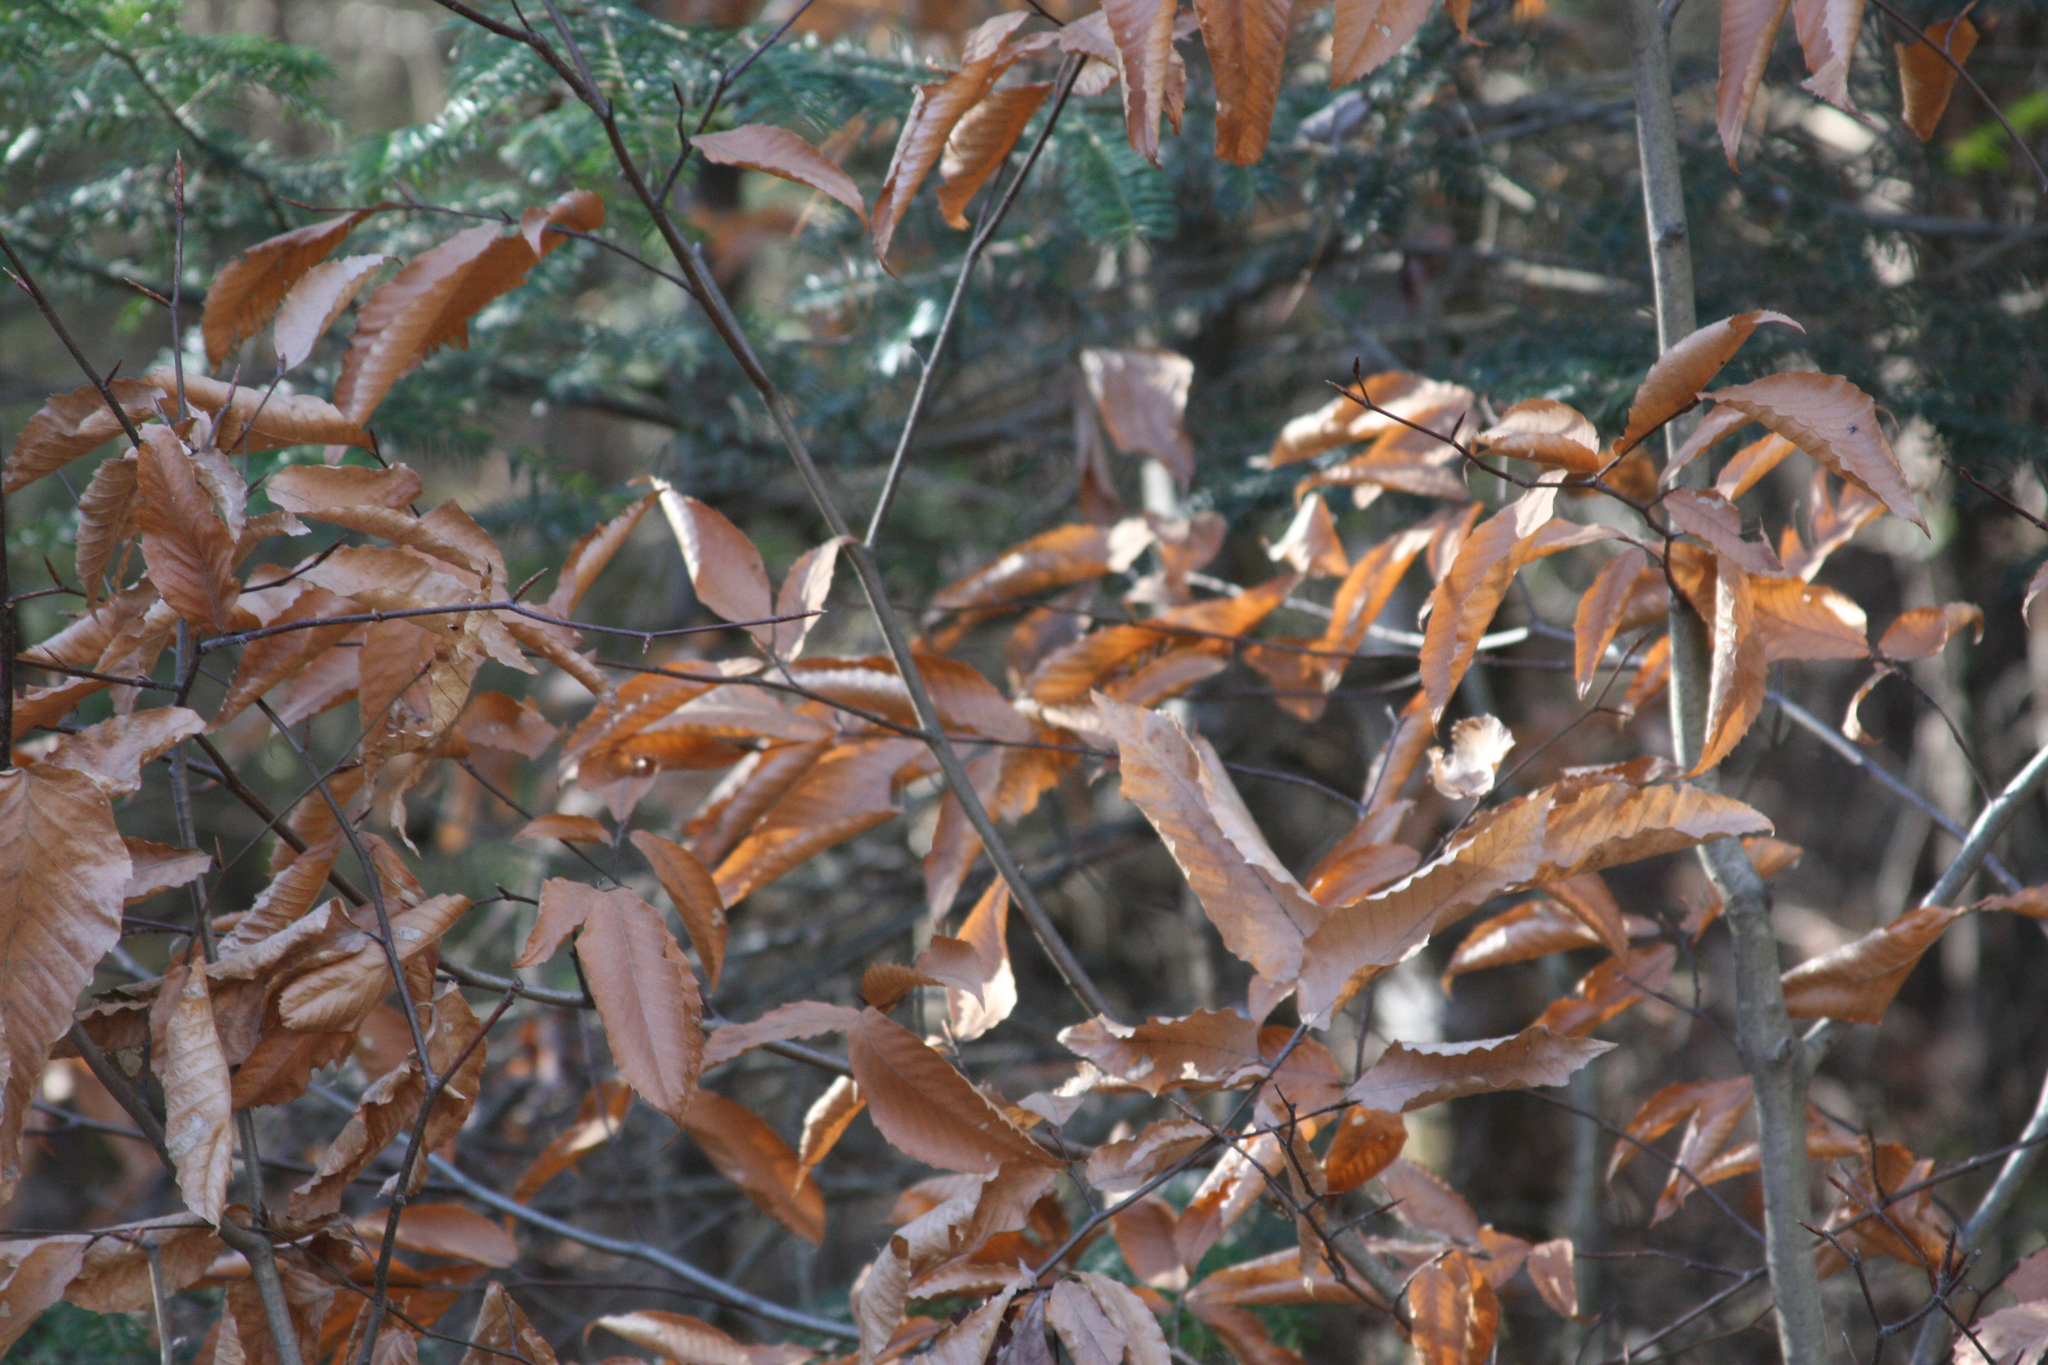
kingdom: Plantae
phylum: Tracheophyta
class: Magnoliopsida
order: Fagales
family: Fagaceae
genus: Fagus
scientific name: Fagus grandifolia
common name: American beech
